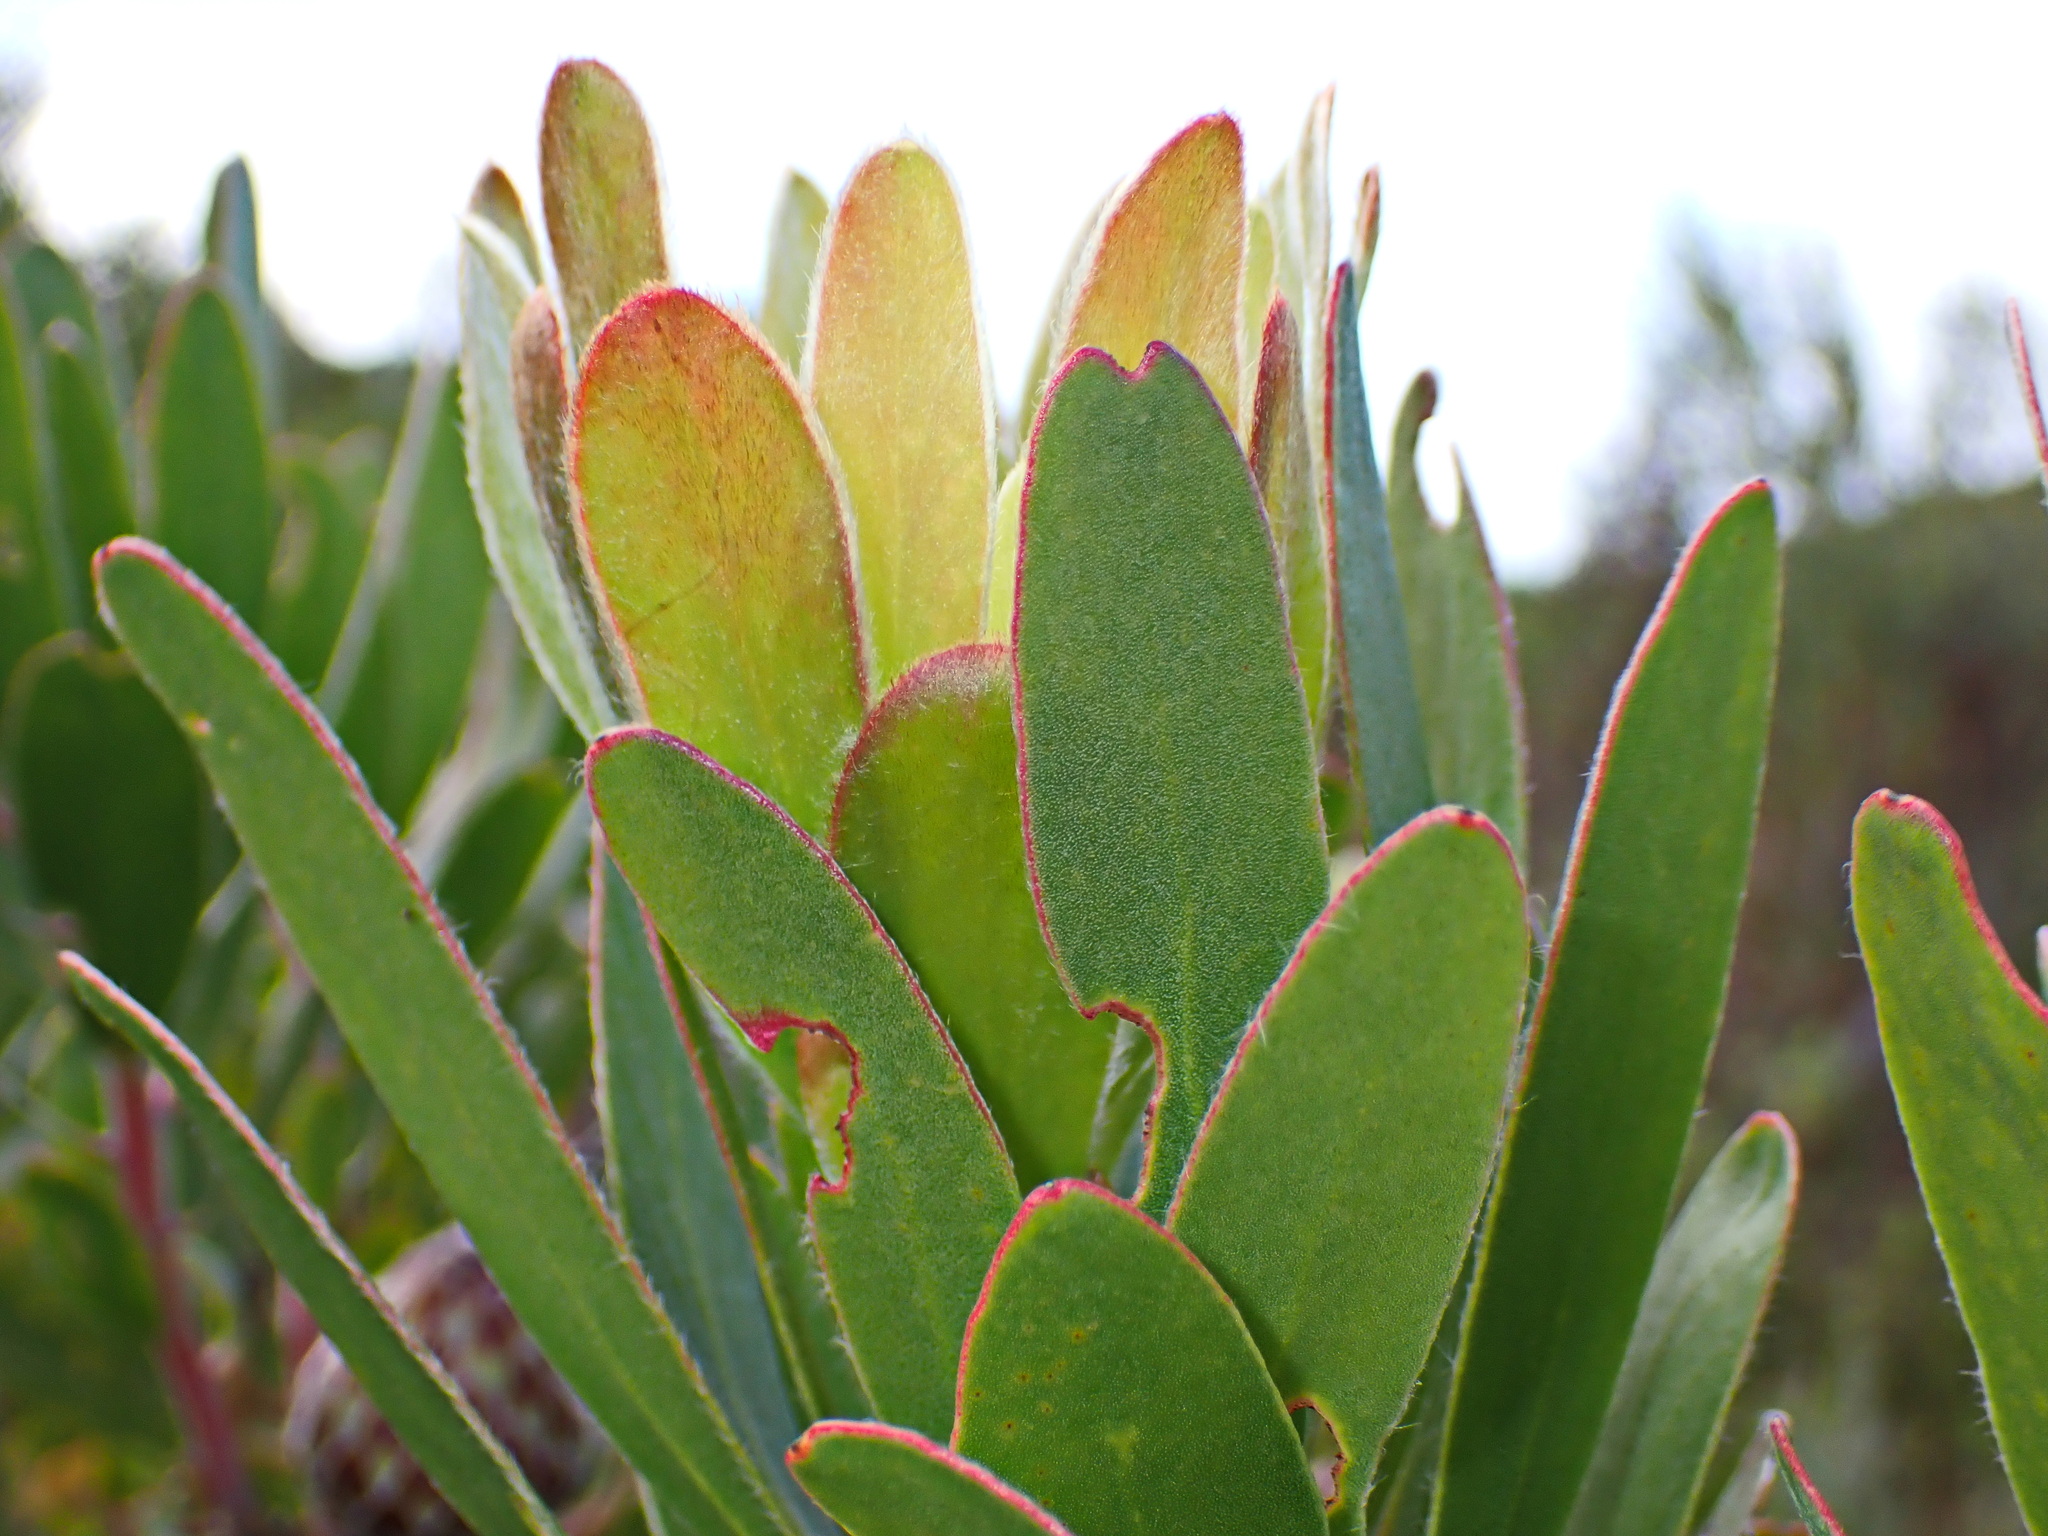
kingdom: Plantae
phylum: Tracheophyta
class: Magnoliopsida
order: Proteales
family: Proteaceae
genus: Protea
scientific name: Protea obtusifolia
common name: Bredasdorp sugarbush
